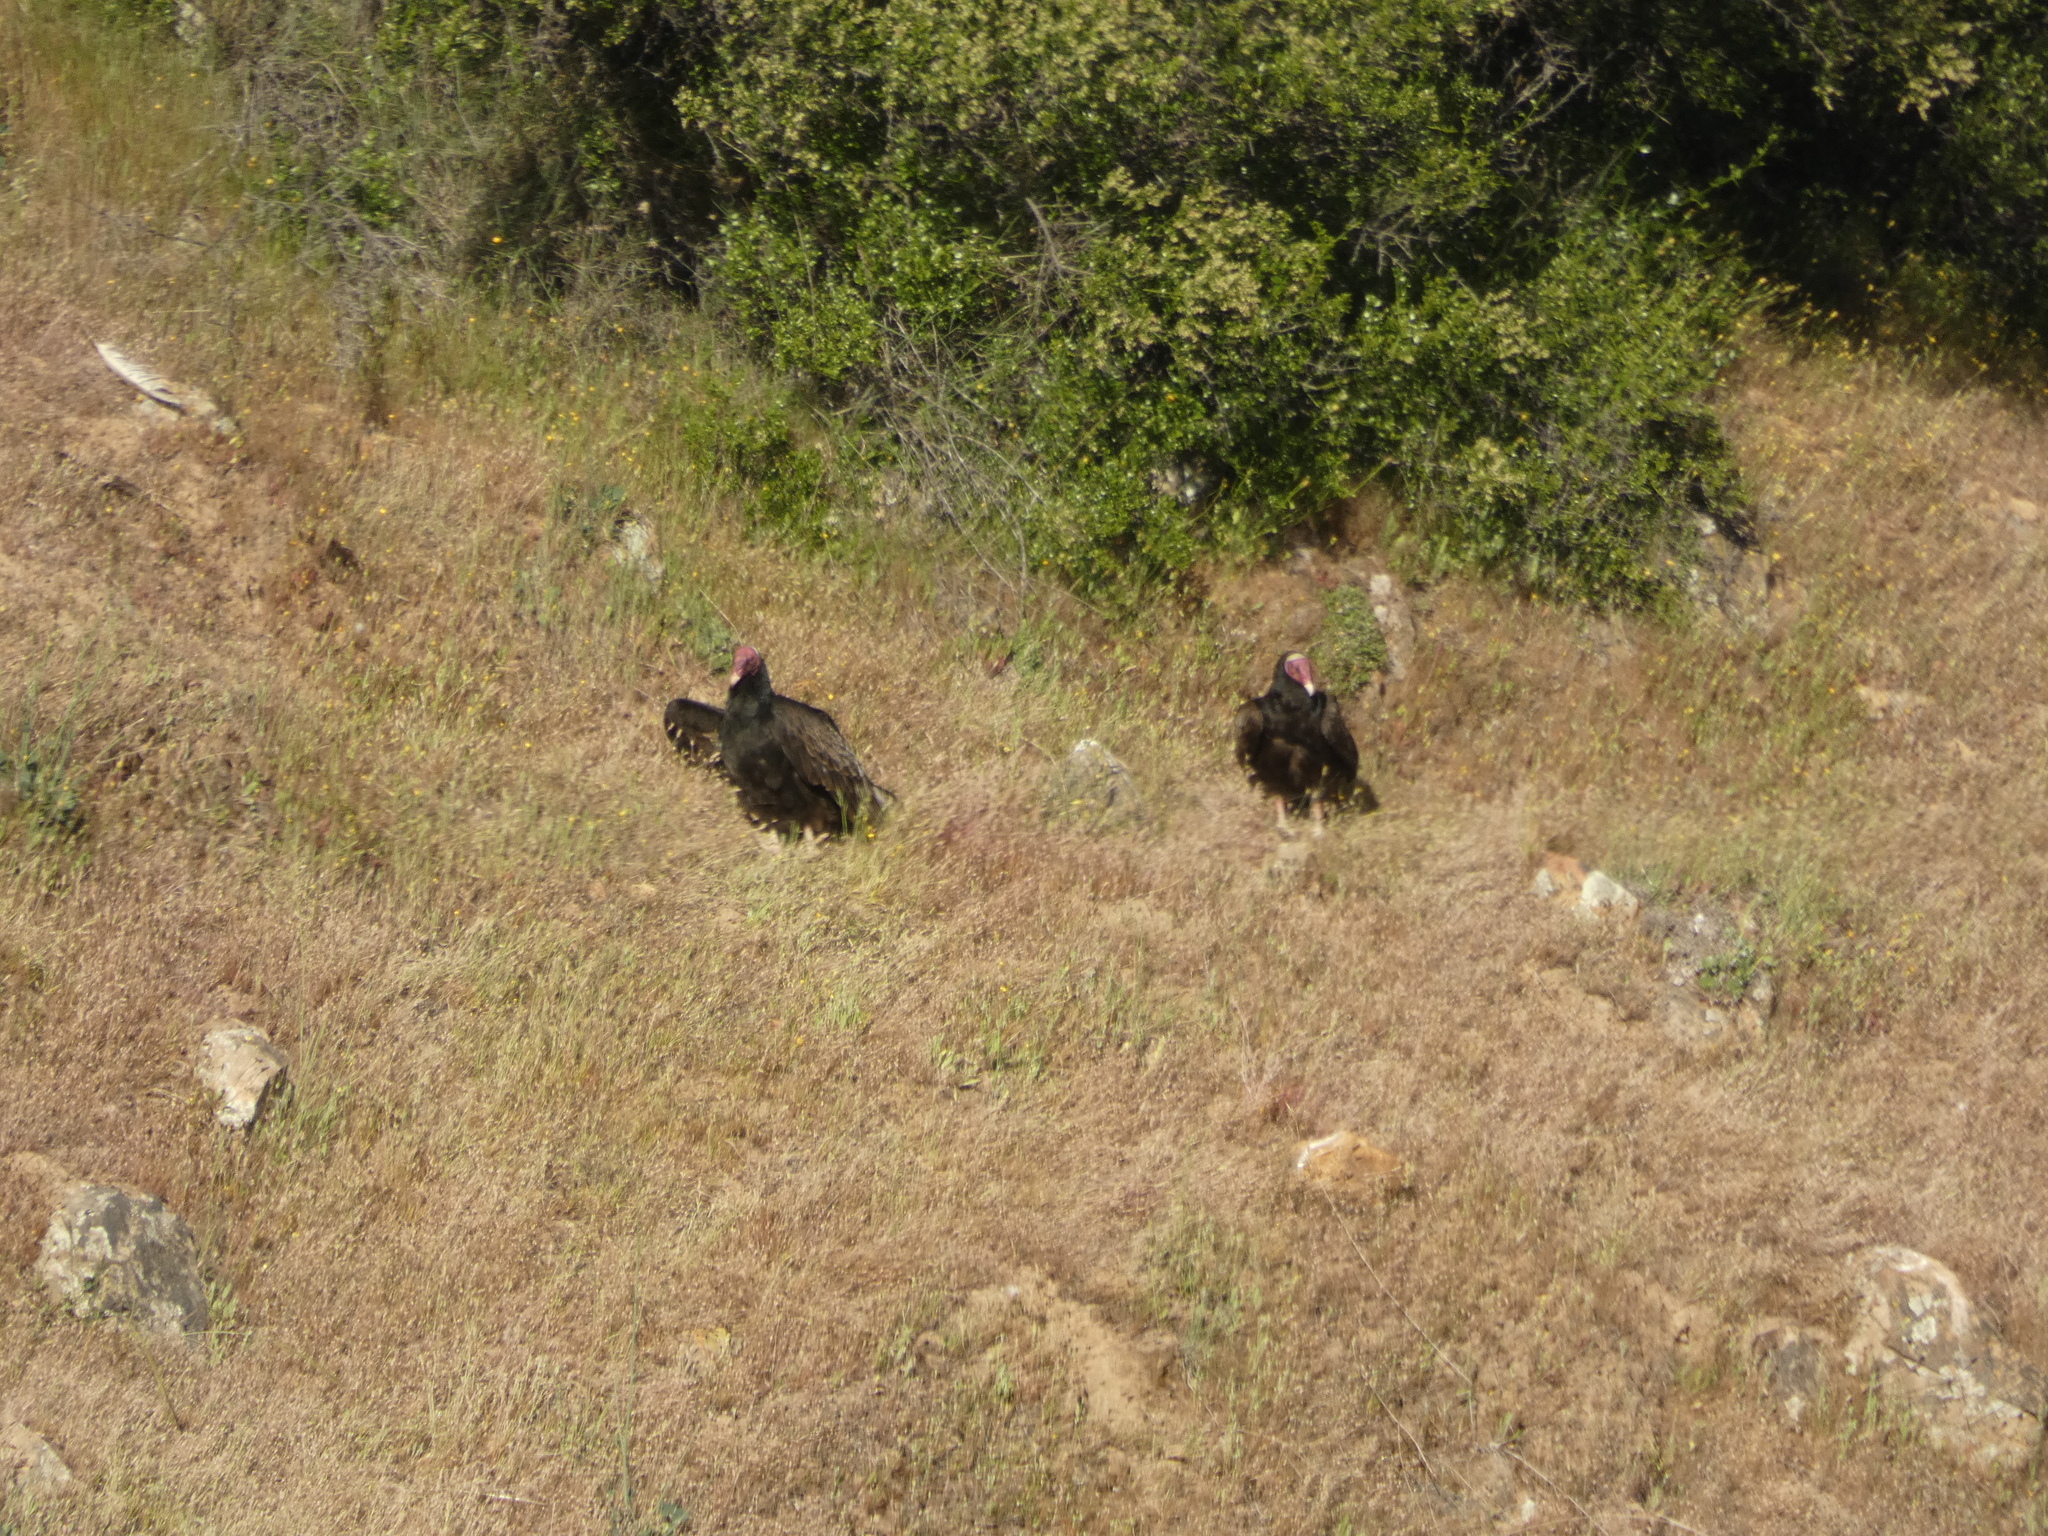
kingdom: Animalia
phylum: Chordata
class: Aves
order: Accipitriformes
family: Cathartidae
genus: Cathartes
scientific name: Cathartes aura
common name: Turkey vulture
